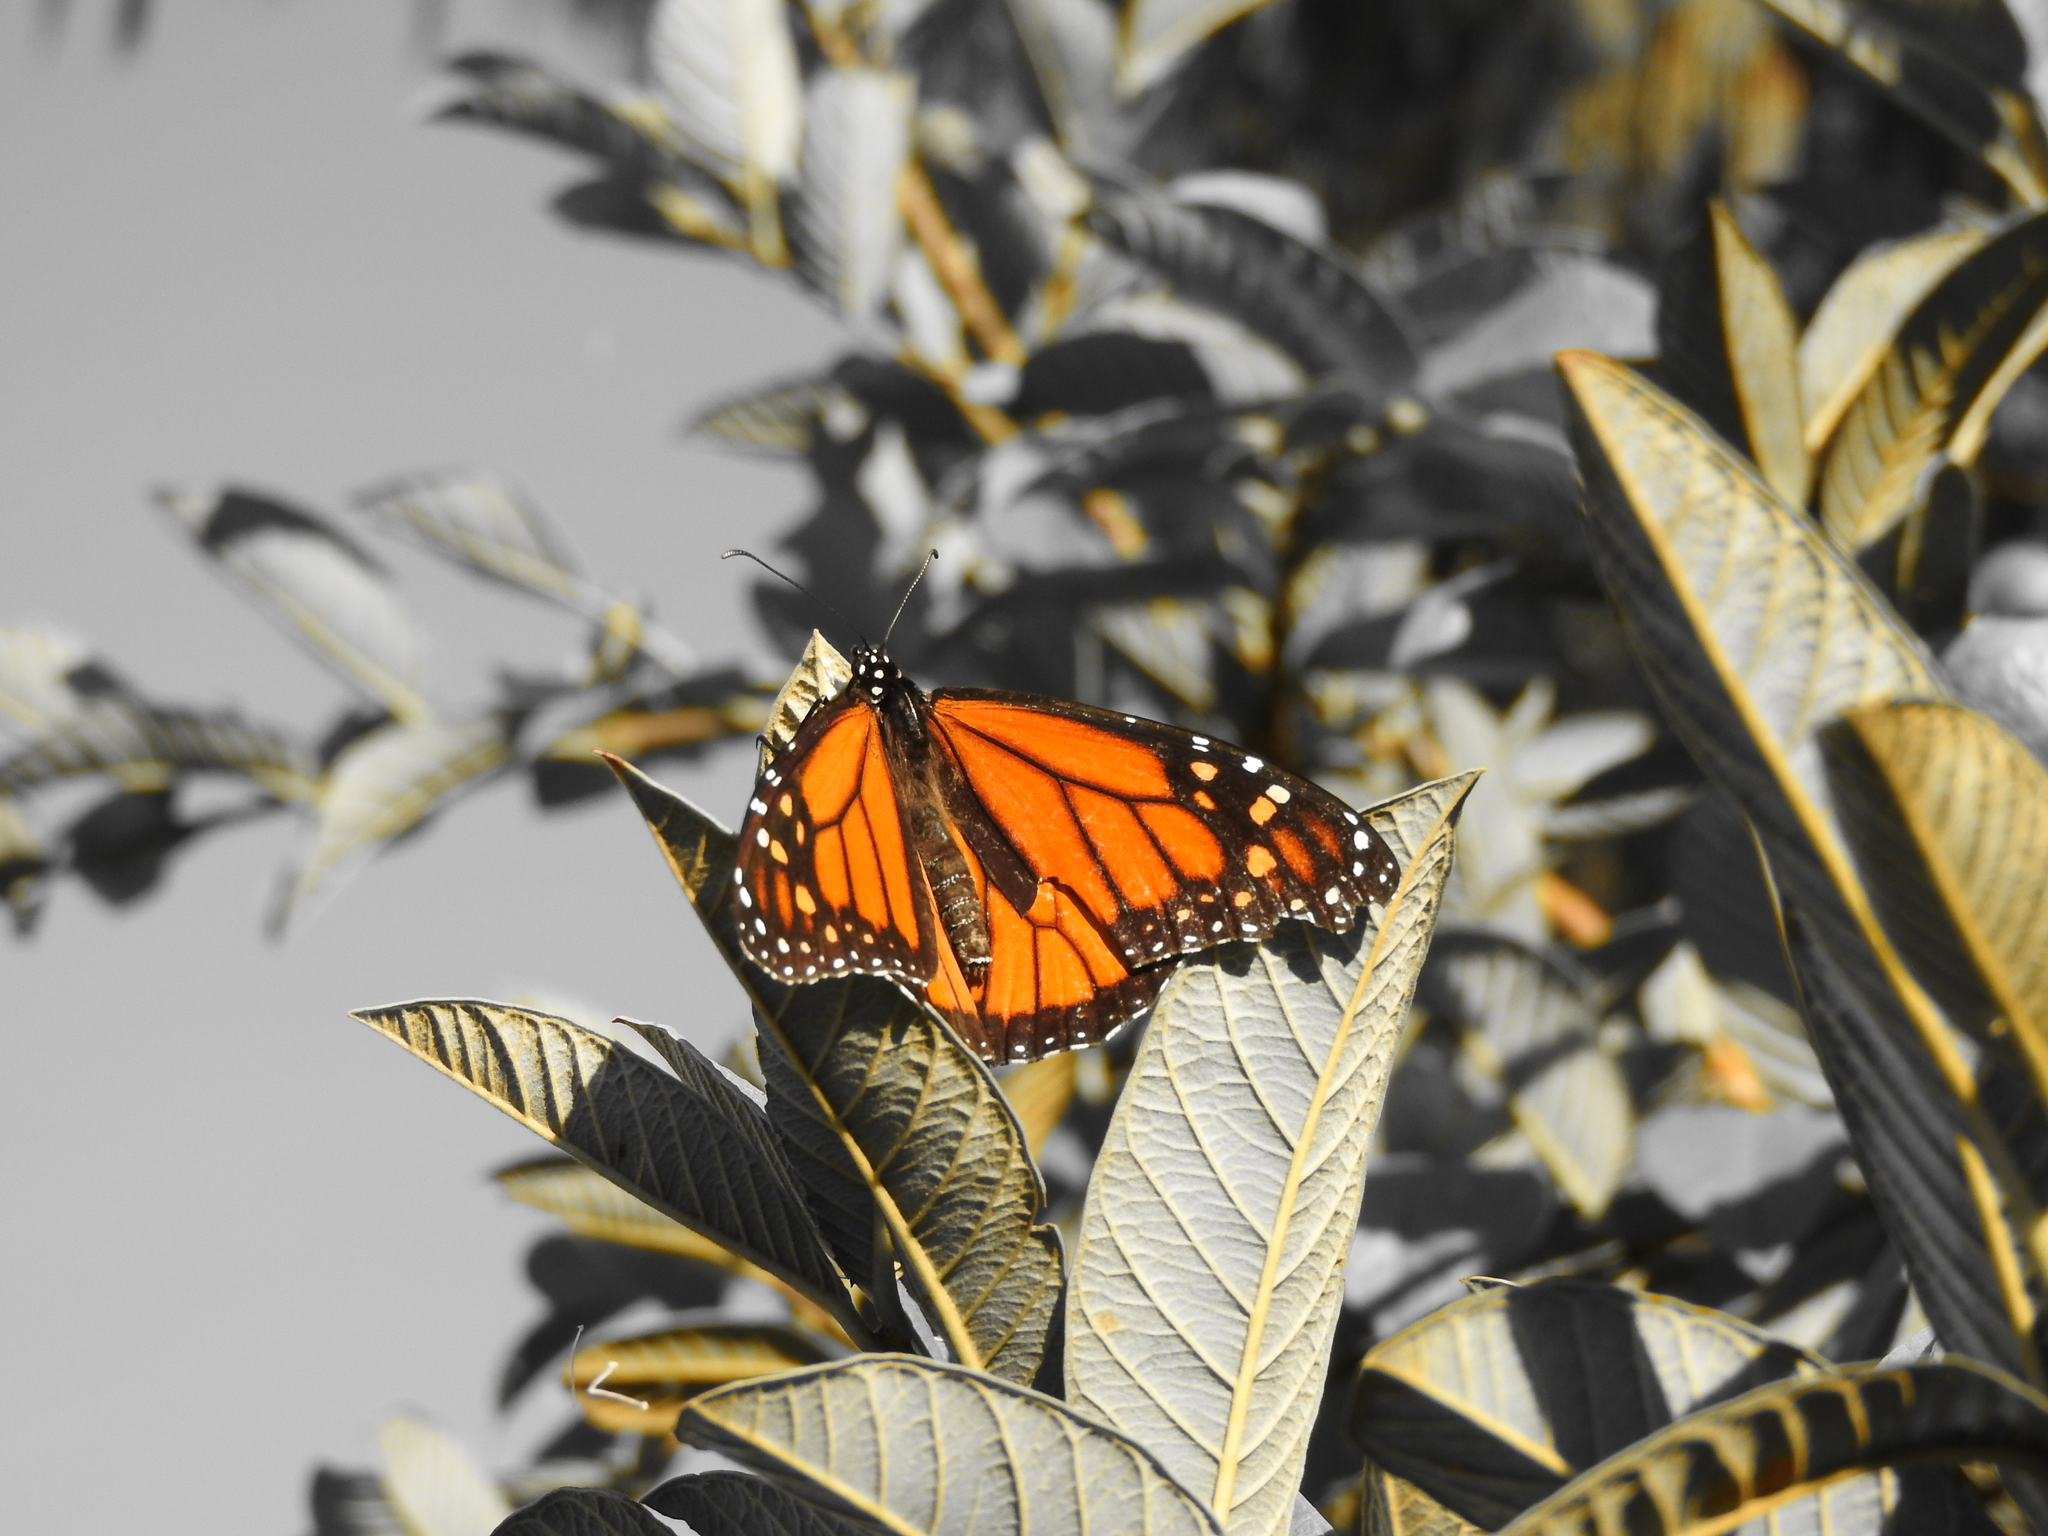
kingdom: Animalia
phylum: Arthropoda
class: Insecta
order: Lepidoptera
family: Nymphalidae
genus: Danaus
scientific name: Danaus plexippus
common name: Monarch
